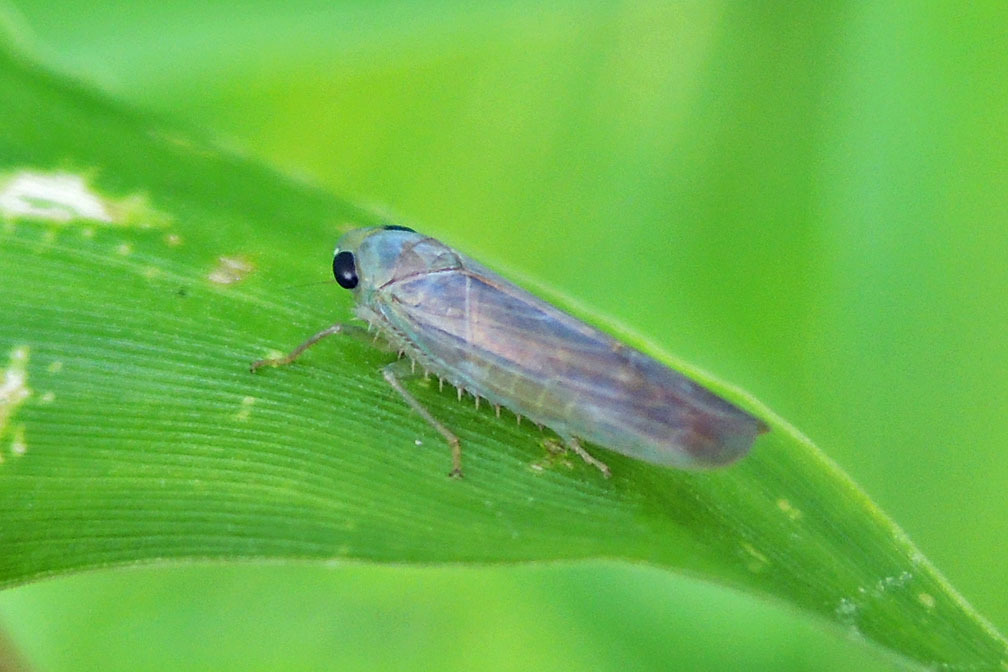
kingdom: Animalia
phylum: Arthropoda
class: Insecta
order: Hemiptera
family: Cicadellidae
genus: Chlorotettix
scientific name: Chlorotettix tergatus
